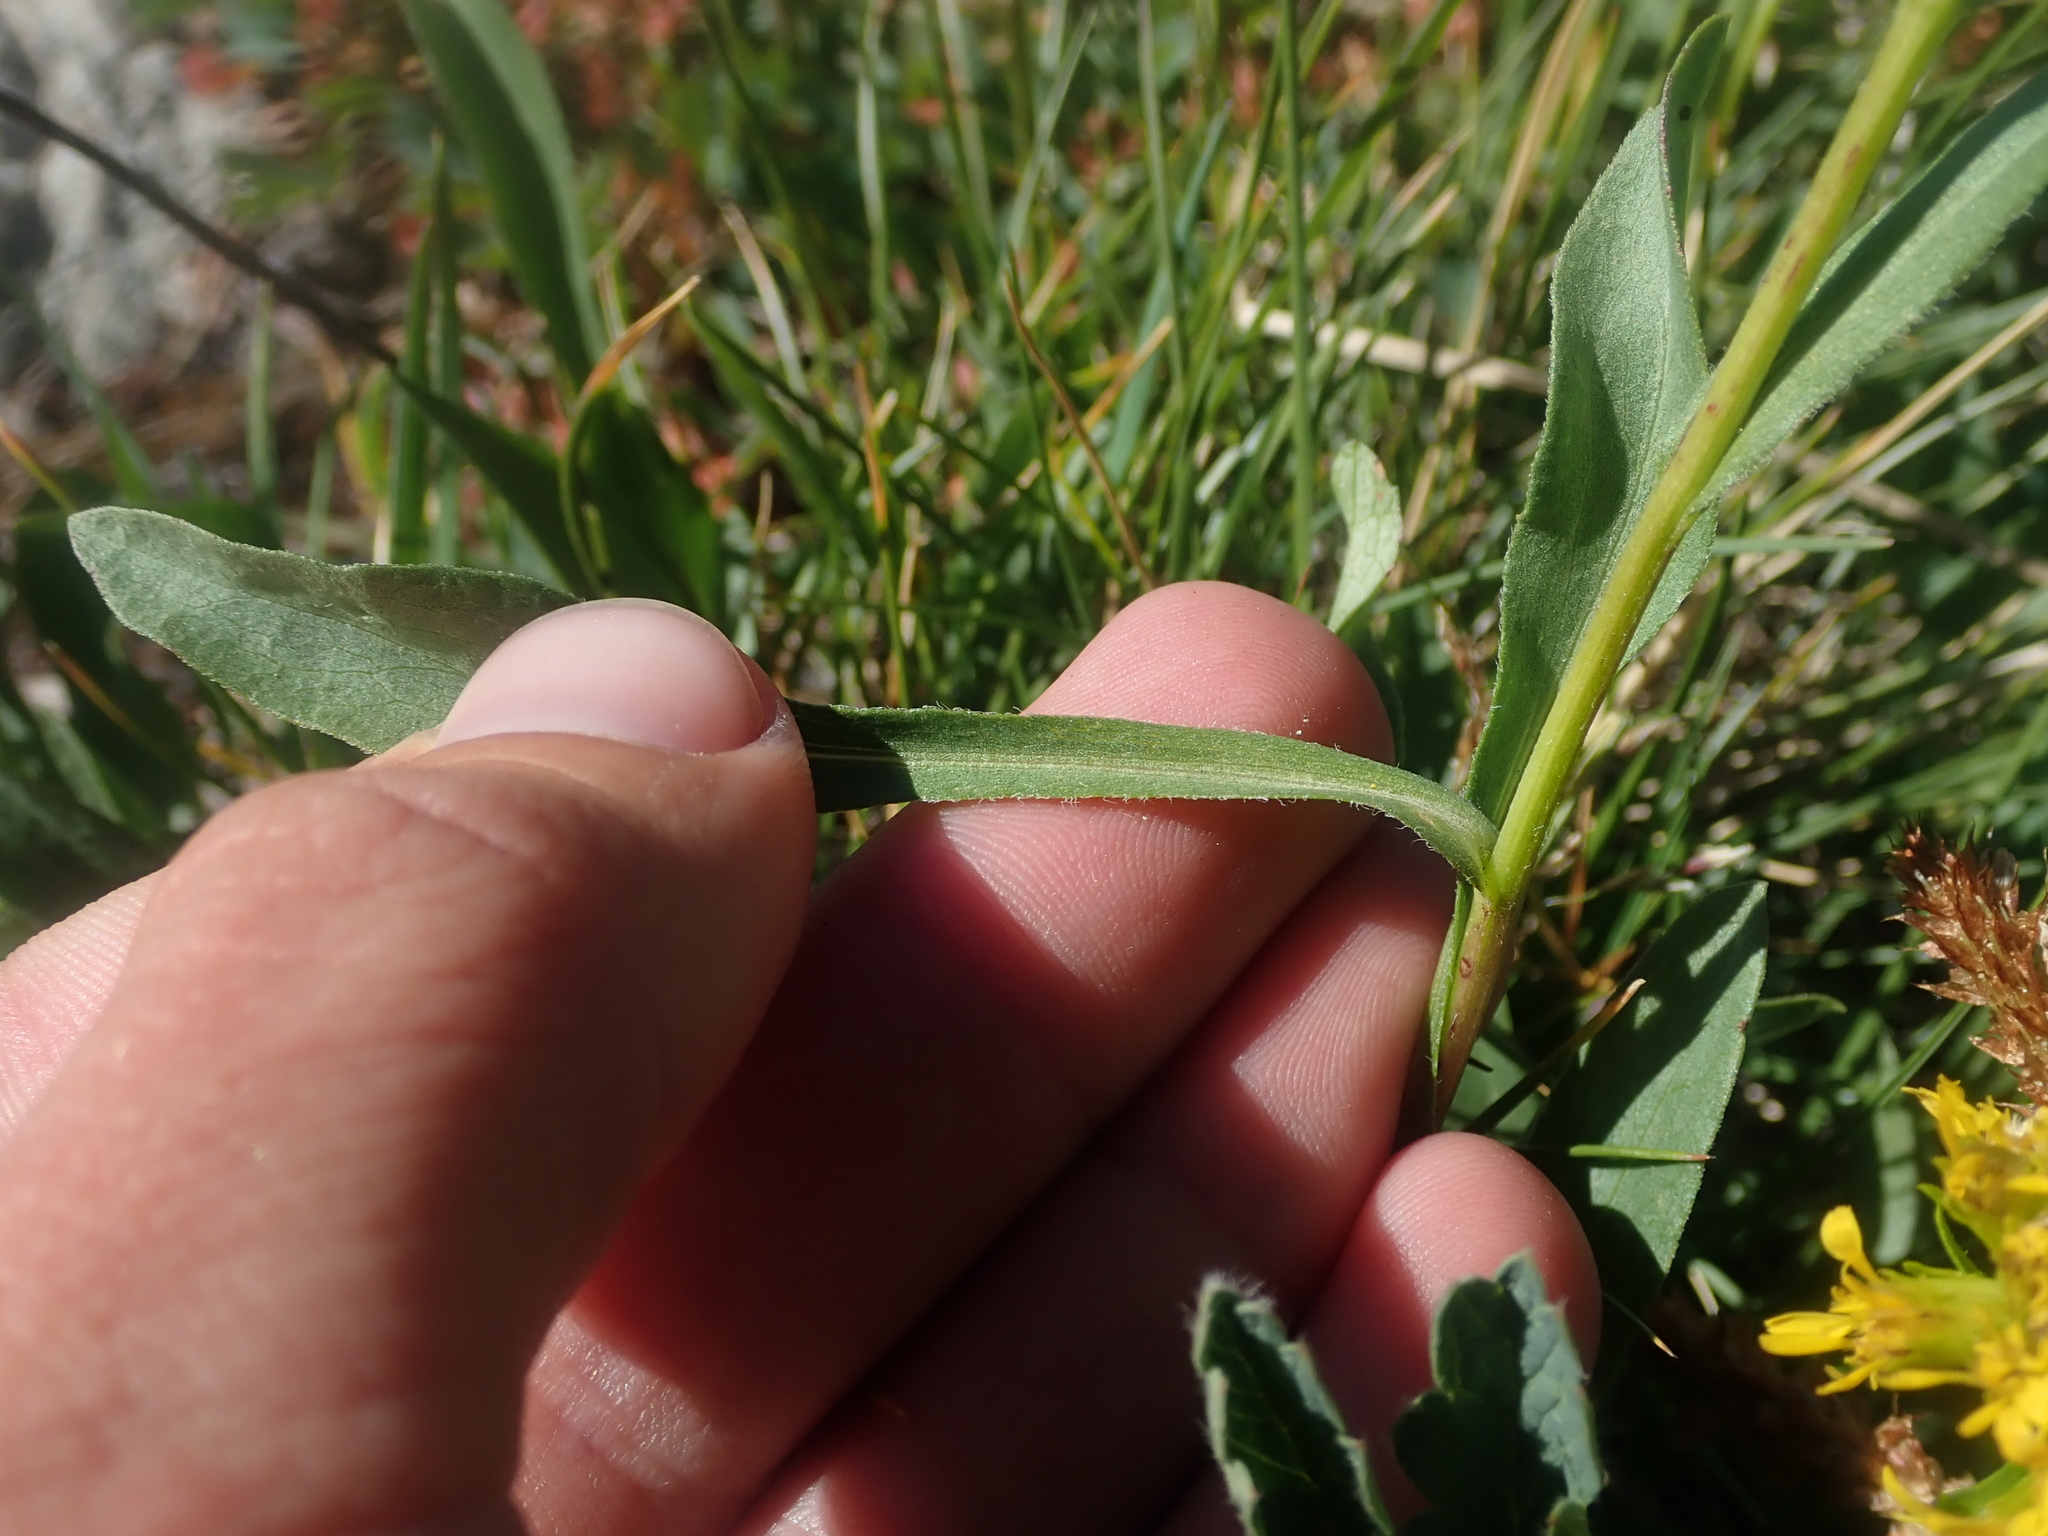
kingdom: Plantae
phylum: Tracheophyta
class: Magnoliopsida
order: Asterales
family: Asteraceae
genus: Oreochrysum
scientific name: Oreochrysum parryi
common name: Parry's goldenweed
